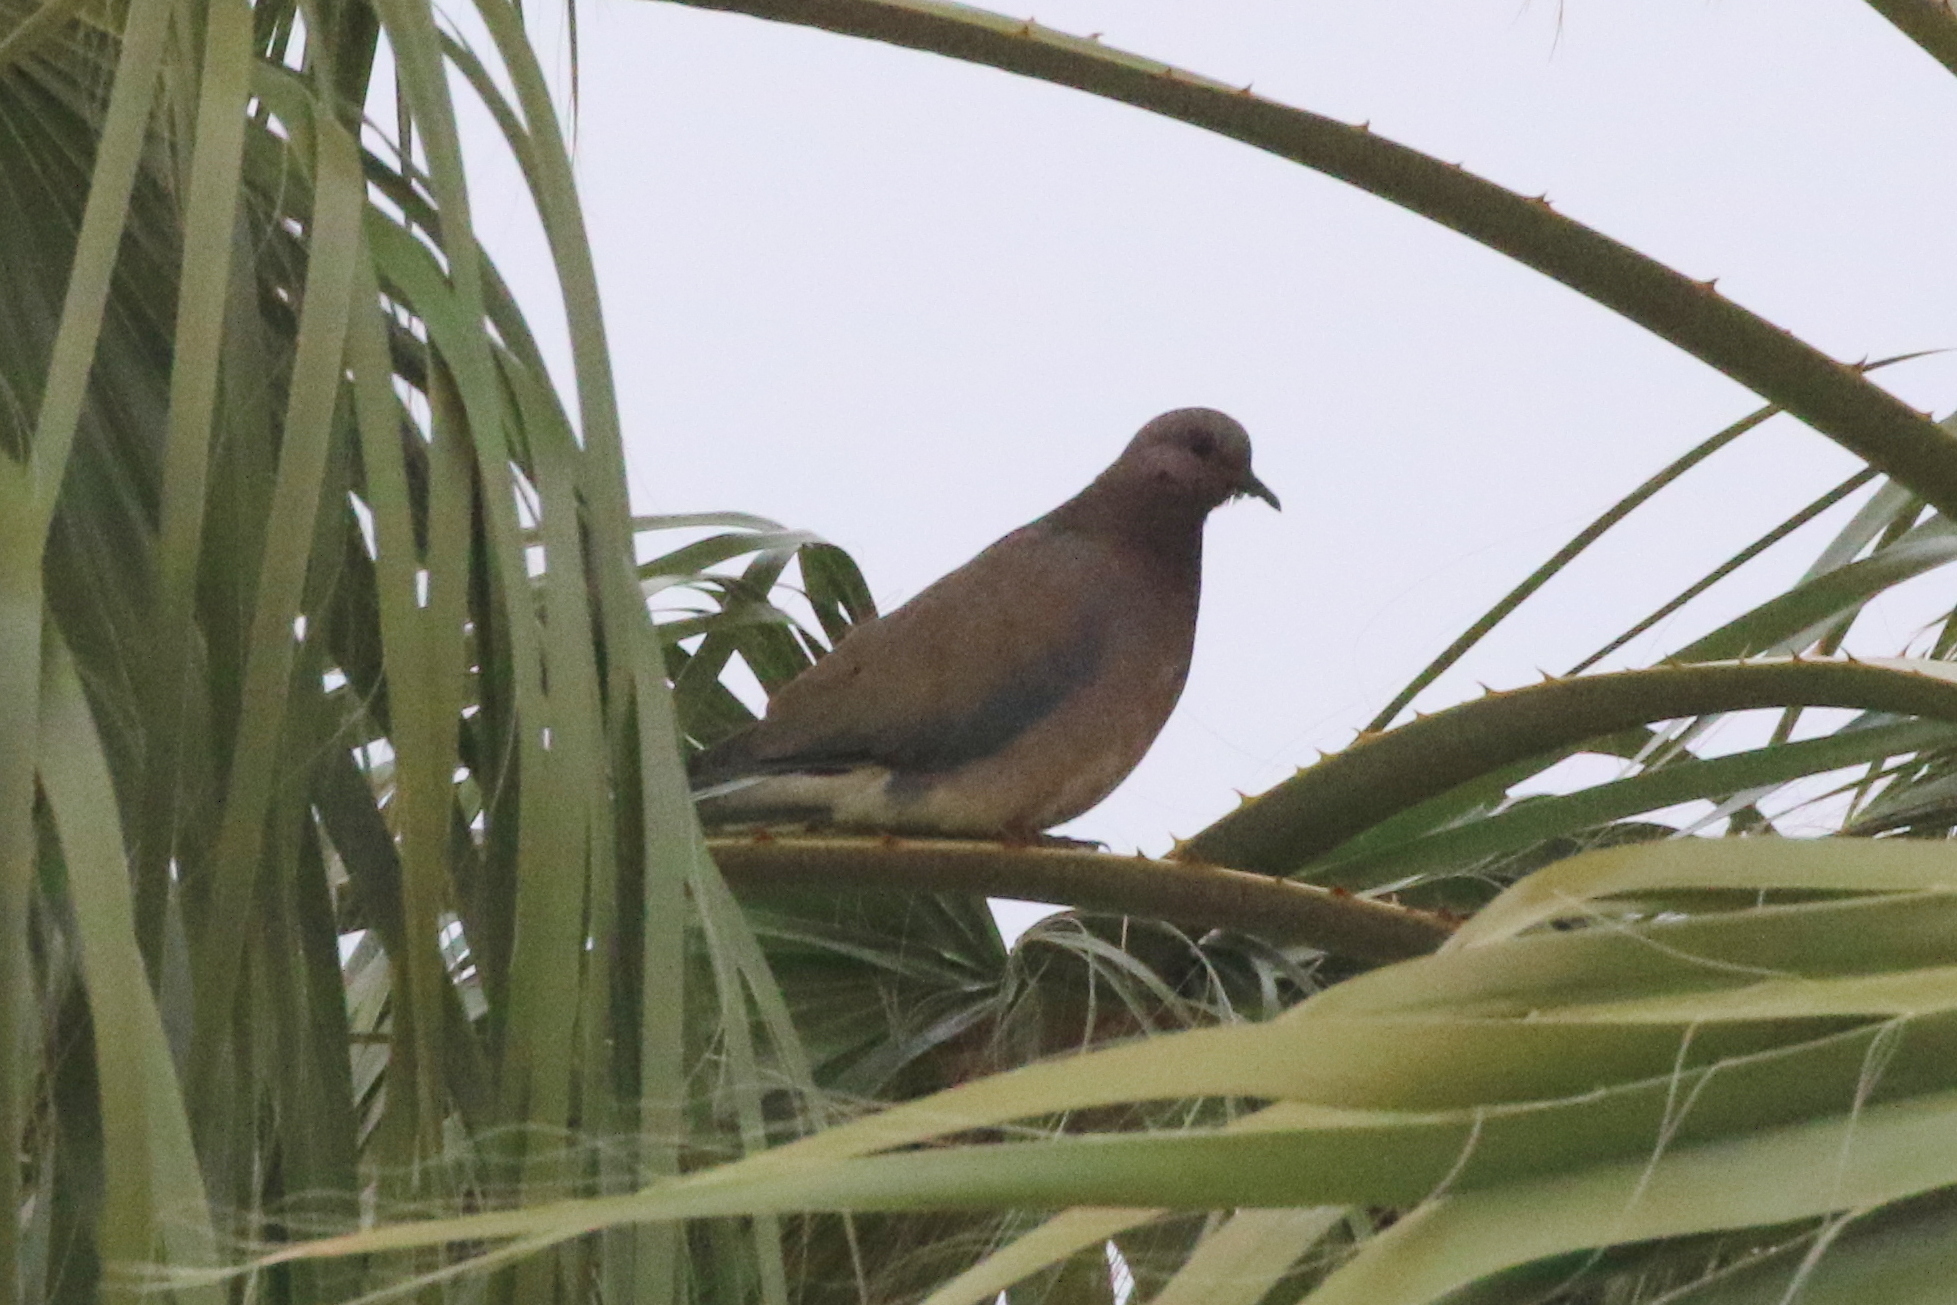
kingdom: Animalia
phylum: Chordata
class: Aves
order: Columbiformes
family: Columbidae
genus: Spilopelia
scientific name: Spilopelia senegalensis
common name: Laughing dove
